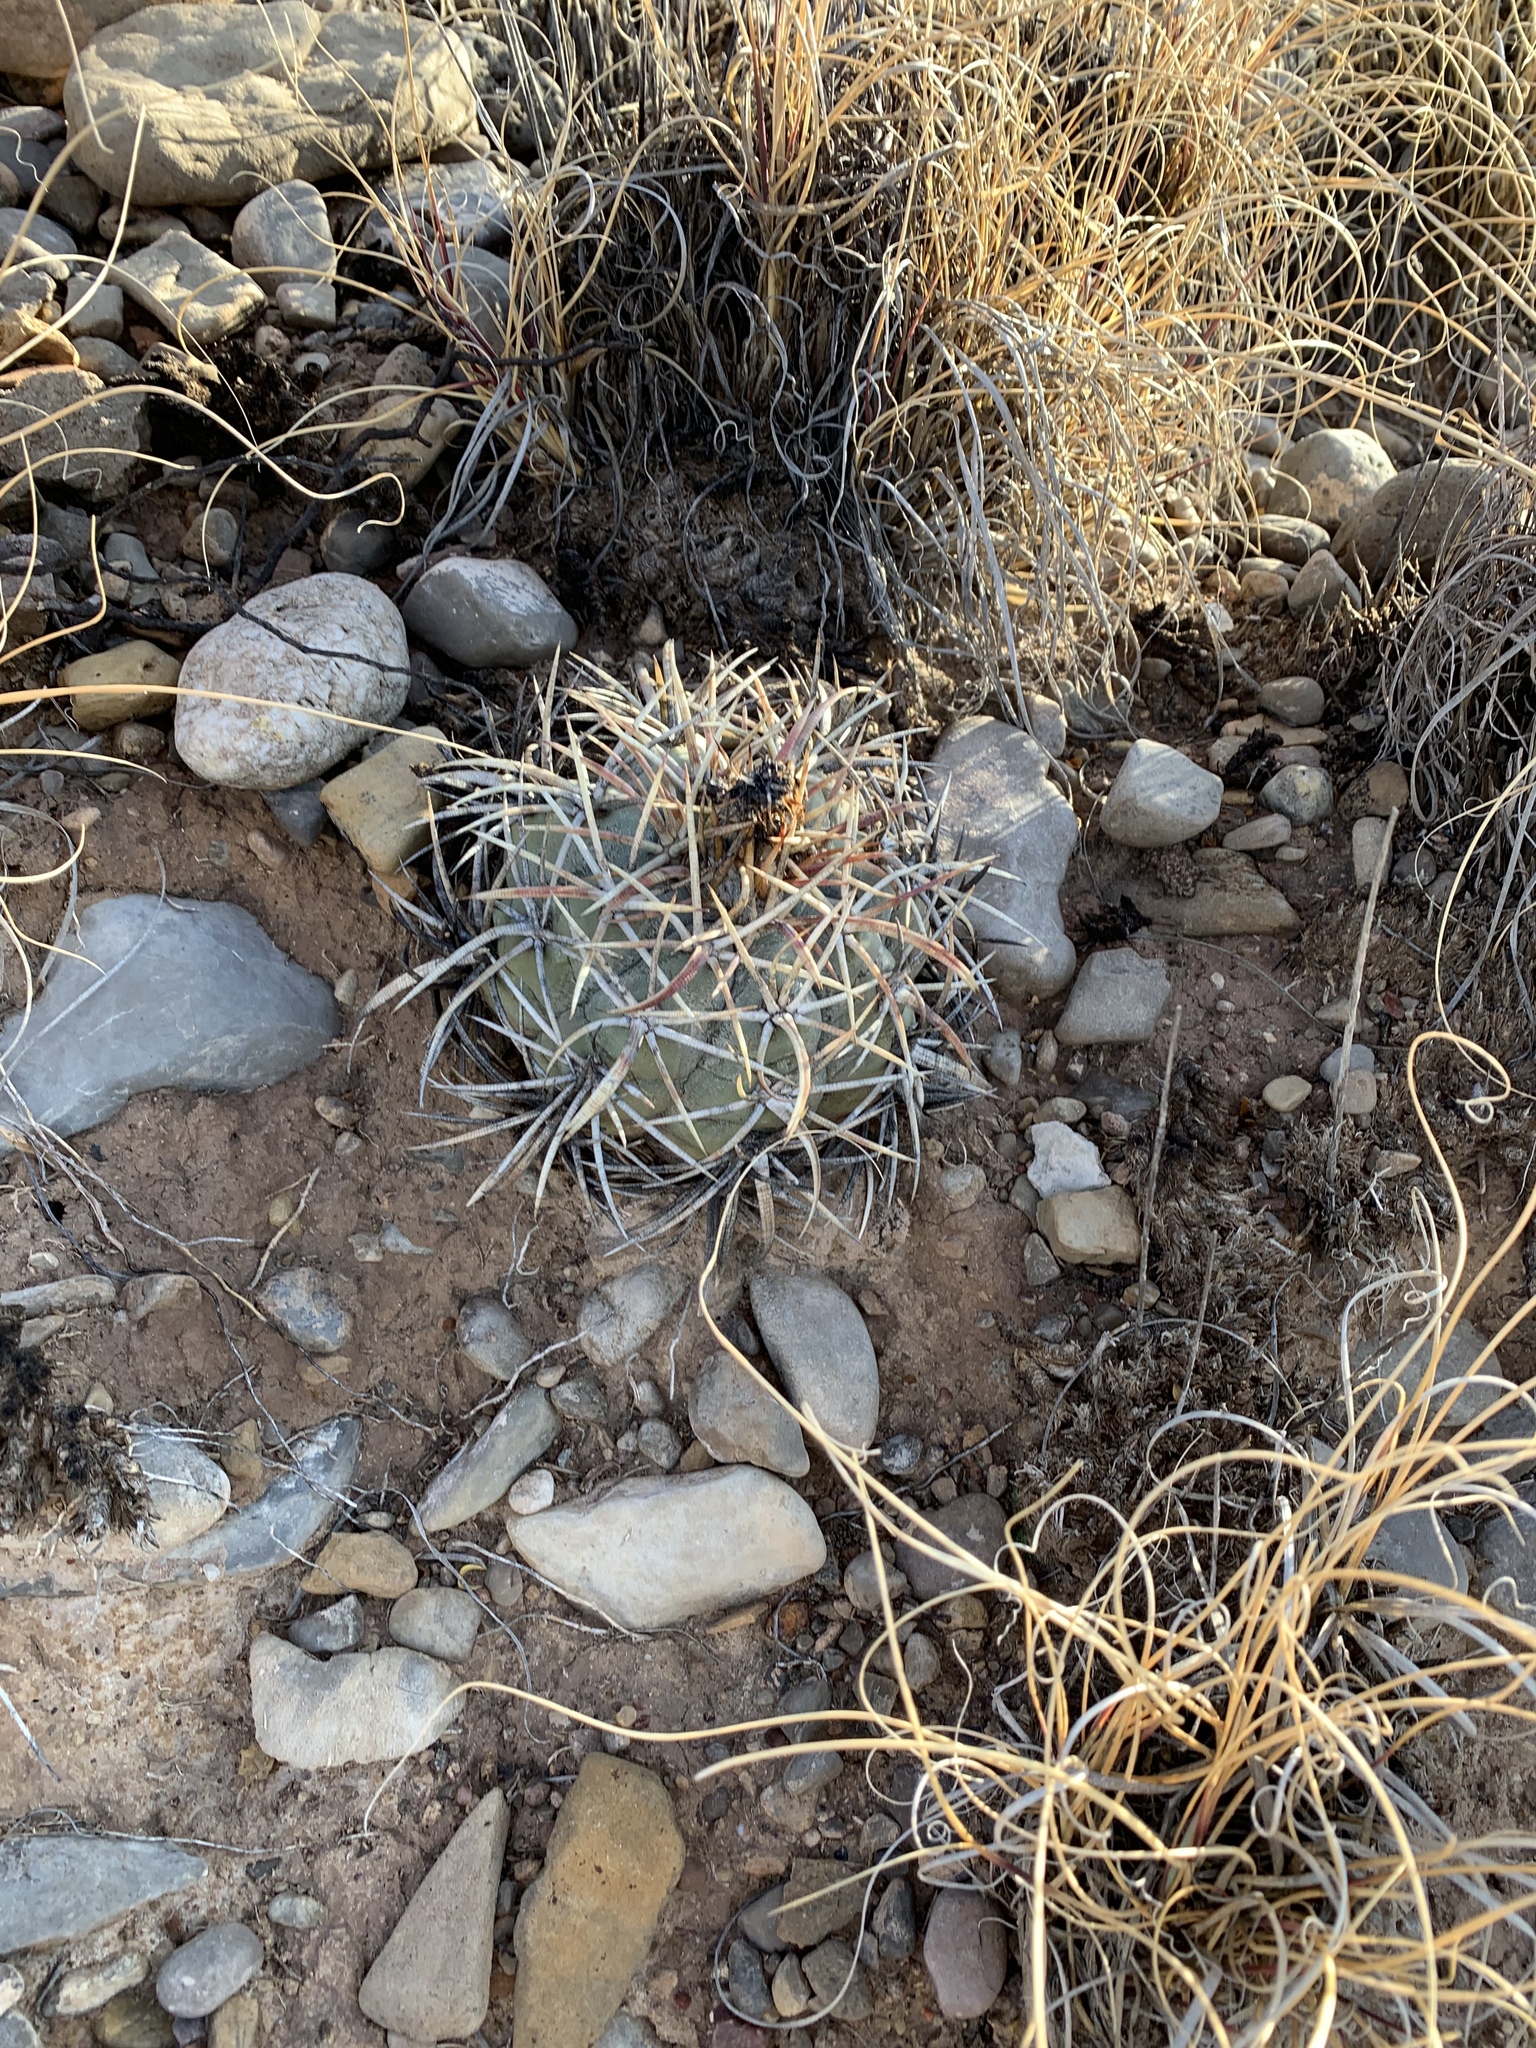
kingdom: Plantae
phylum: Tracheophyta
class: Magnoliopsida
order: Caryophyllales
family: Cactaceae
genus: Echinocactus
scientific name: Echinocactus horizonthalonius
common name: Devilshead
